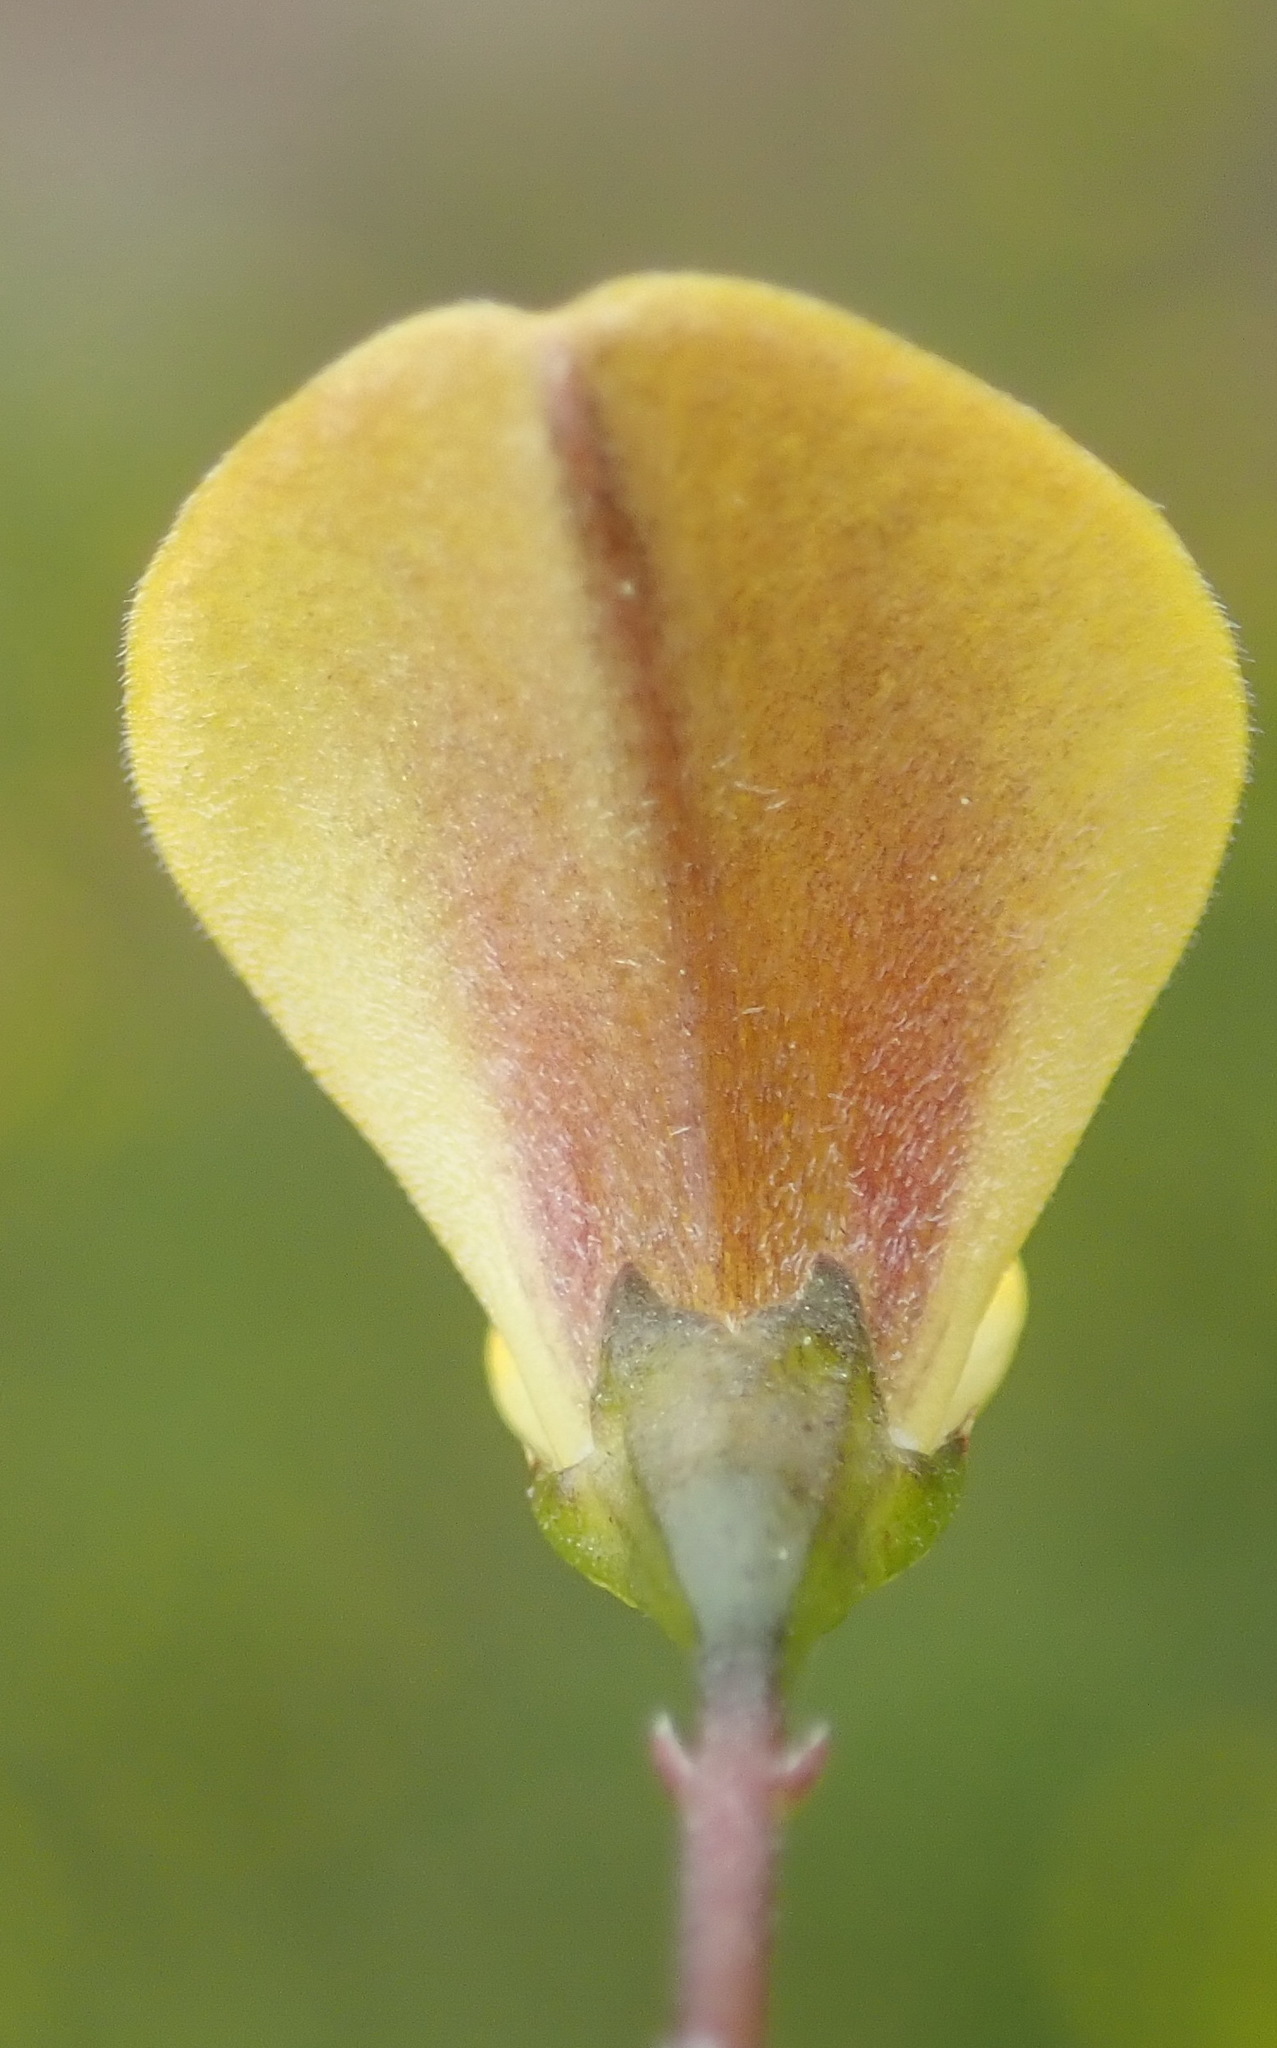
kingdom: Plantae
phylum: Tracheophyta
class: Magnoliopsida
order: Fabales
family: Fabaceae
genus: Aspalathus
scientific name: Aspalathus biflora
